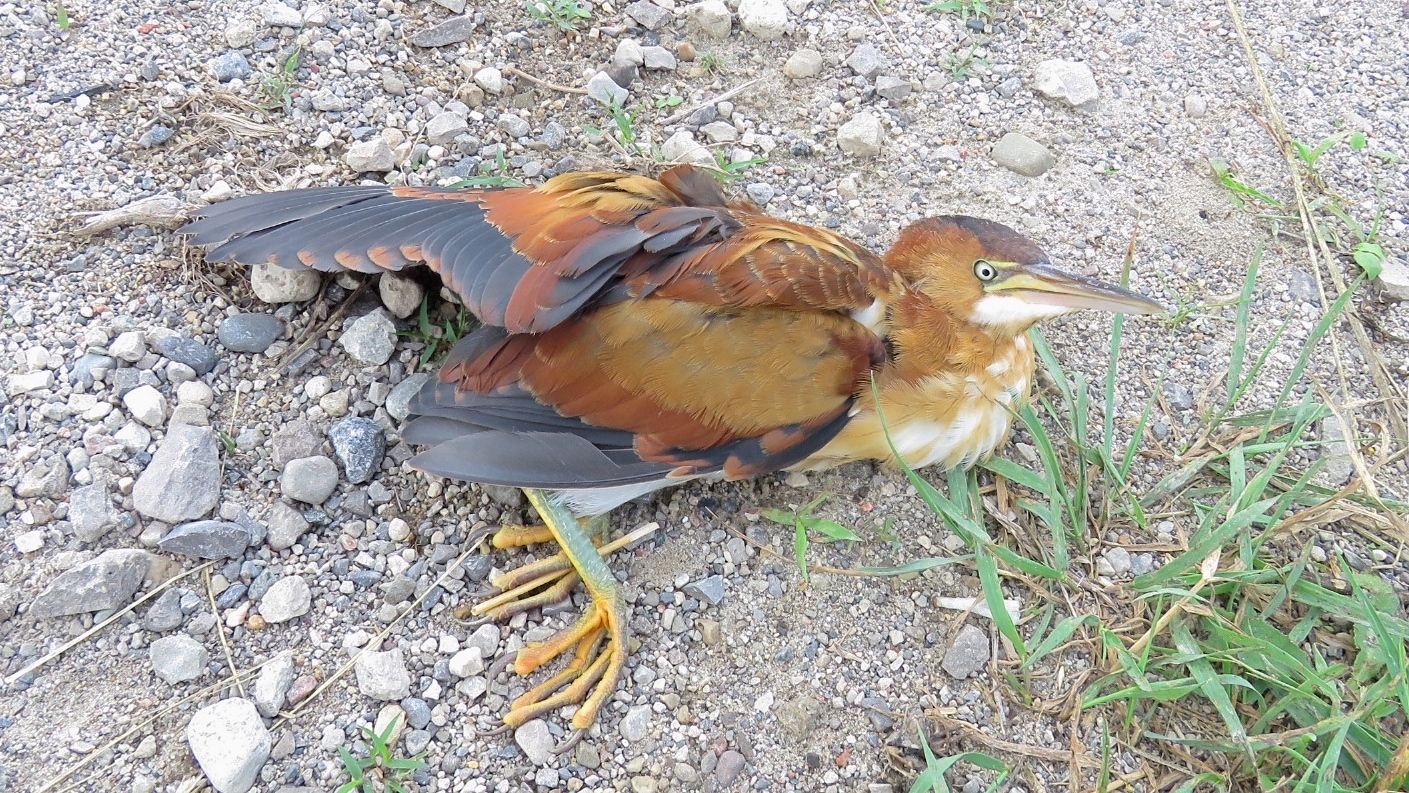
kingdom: Animalia
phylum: Chordata
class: Aves
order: Pelecaniformes
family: Ardeidae
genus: Ixobrychus
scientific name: Ixobrychus exilis
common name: Least bittern
